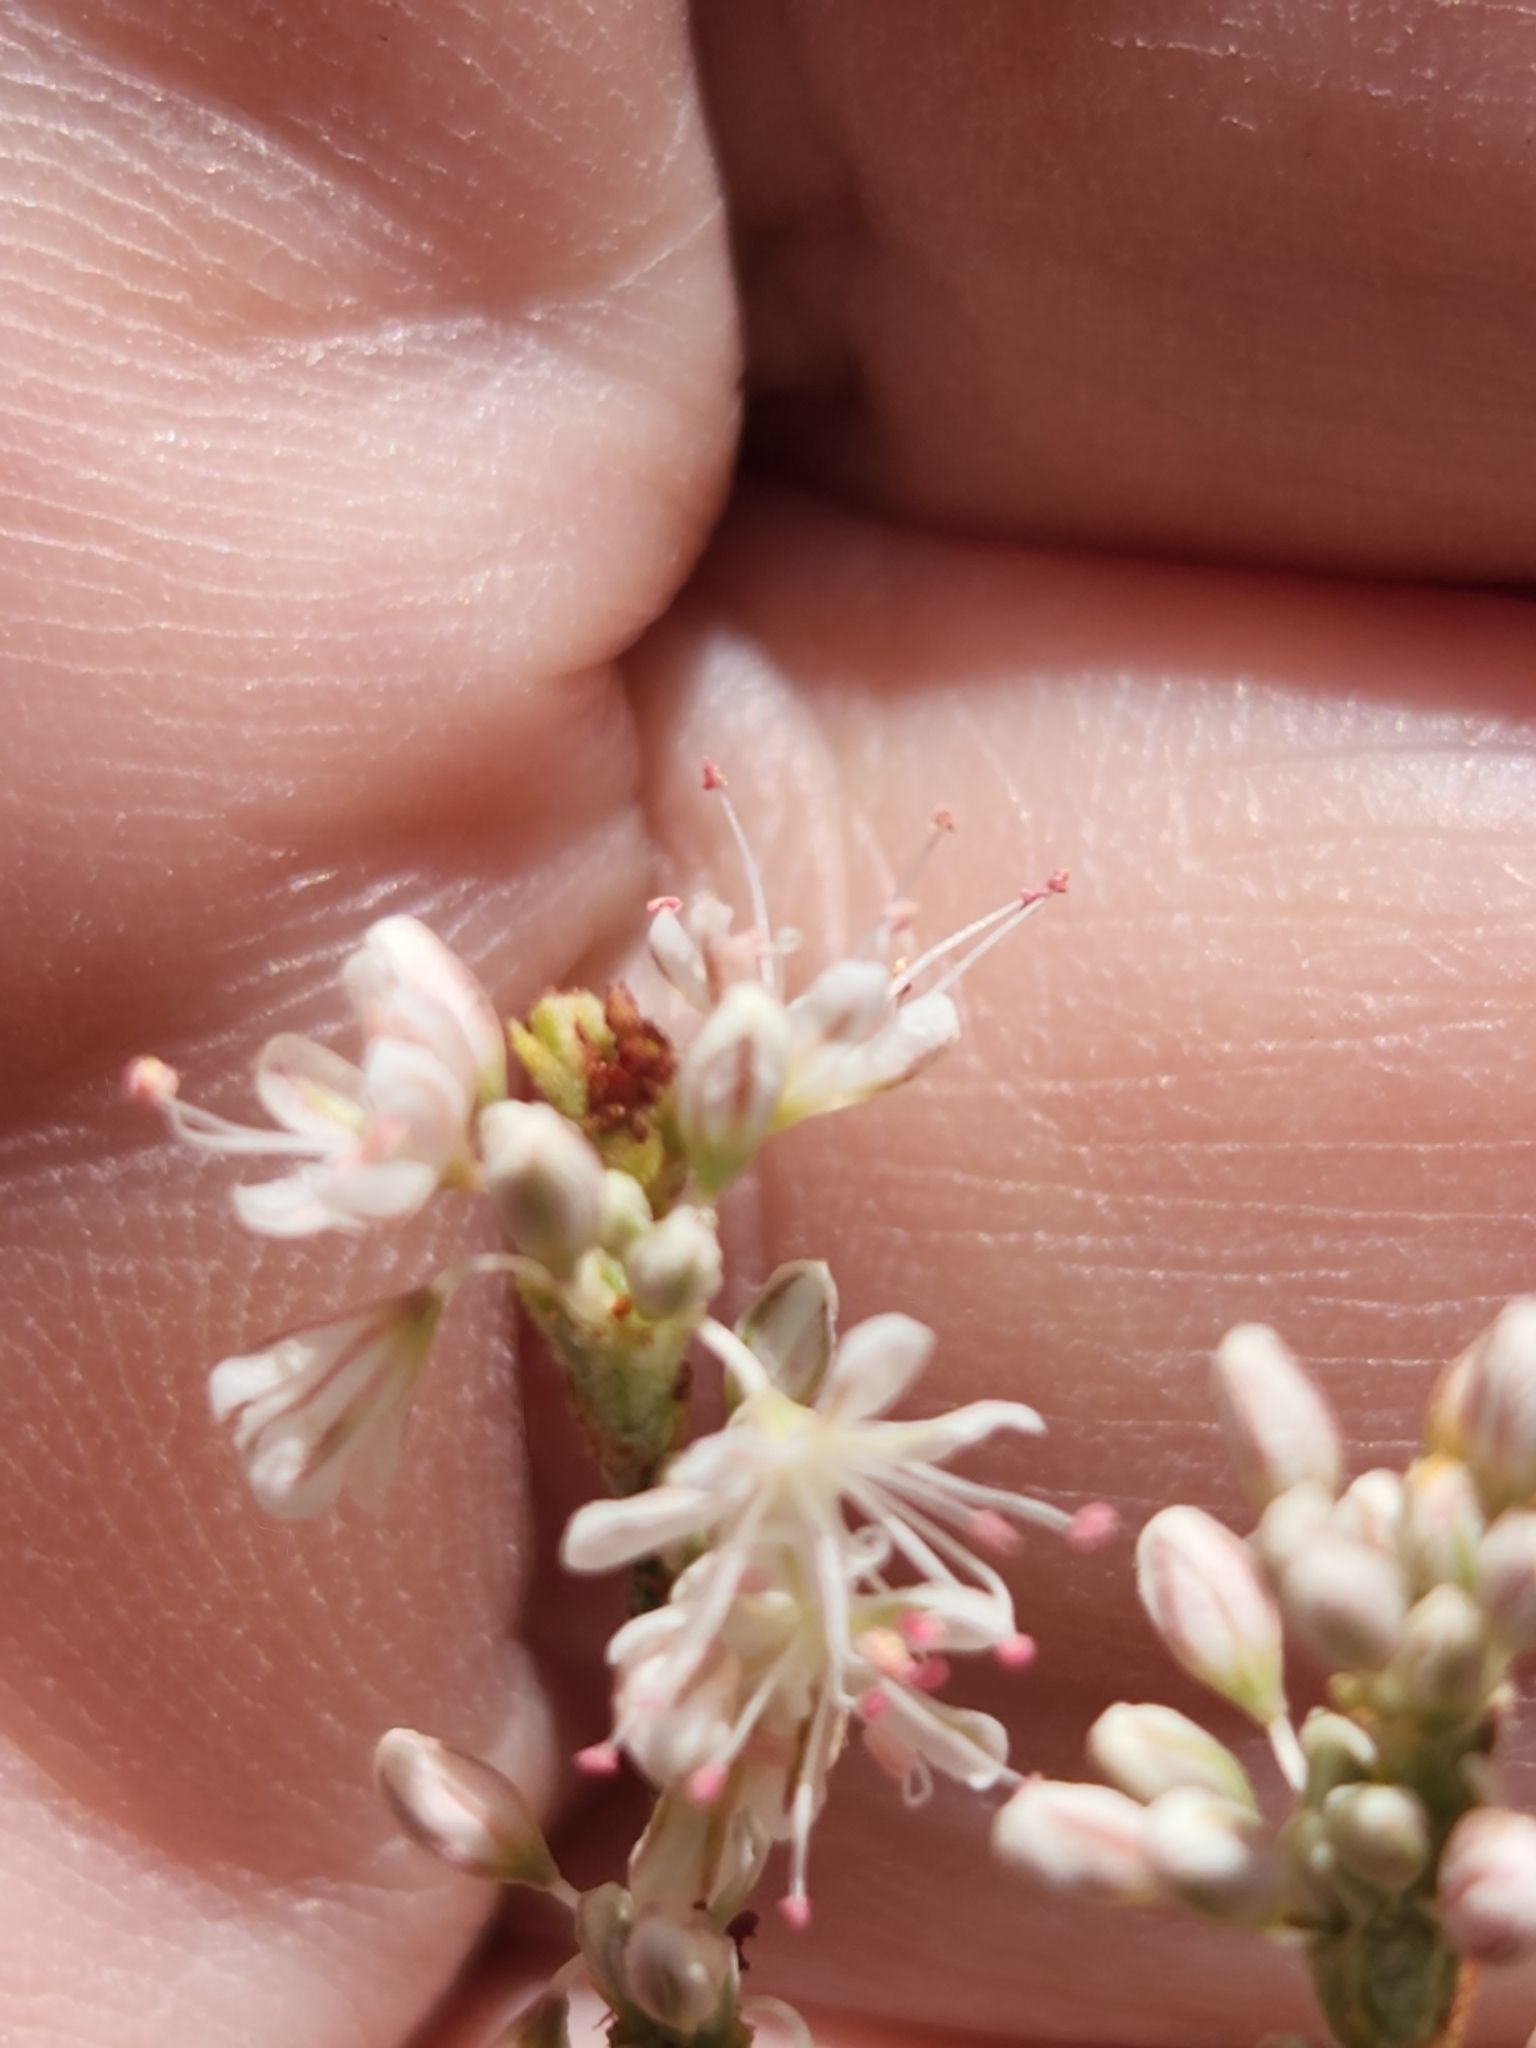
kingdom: Plantae
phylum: Tracheophyta
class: Magnoliopsida
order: Caryophyllales
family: Polygonaceae
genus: Eriogonum
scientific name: Eriogonum wrightii
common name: Bastard-sage
